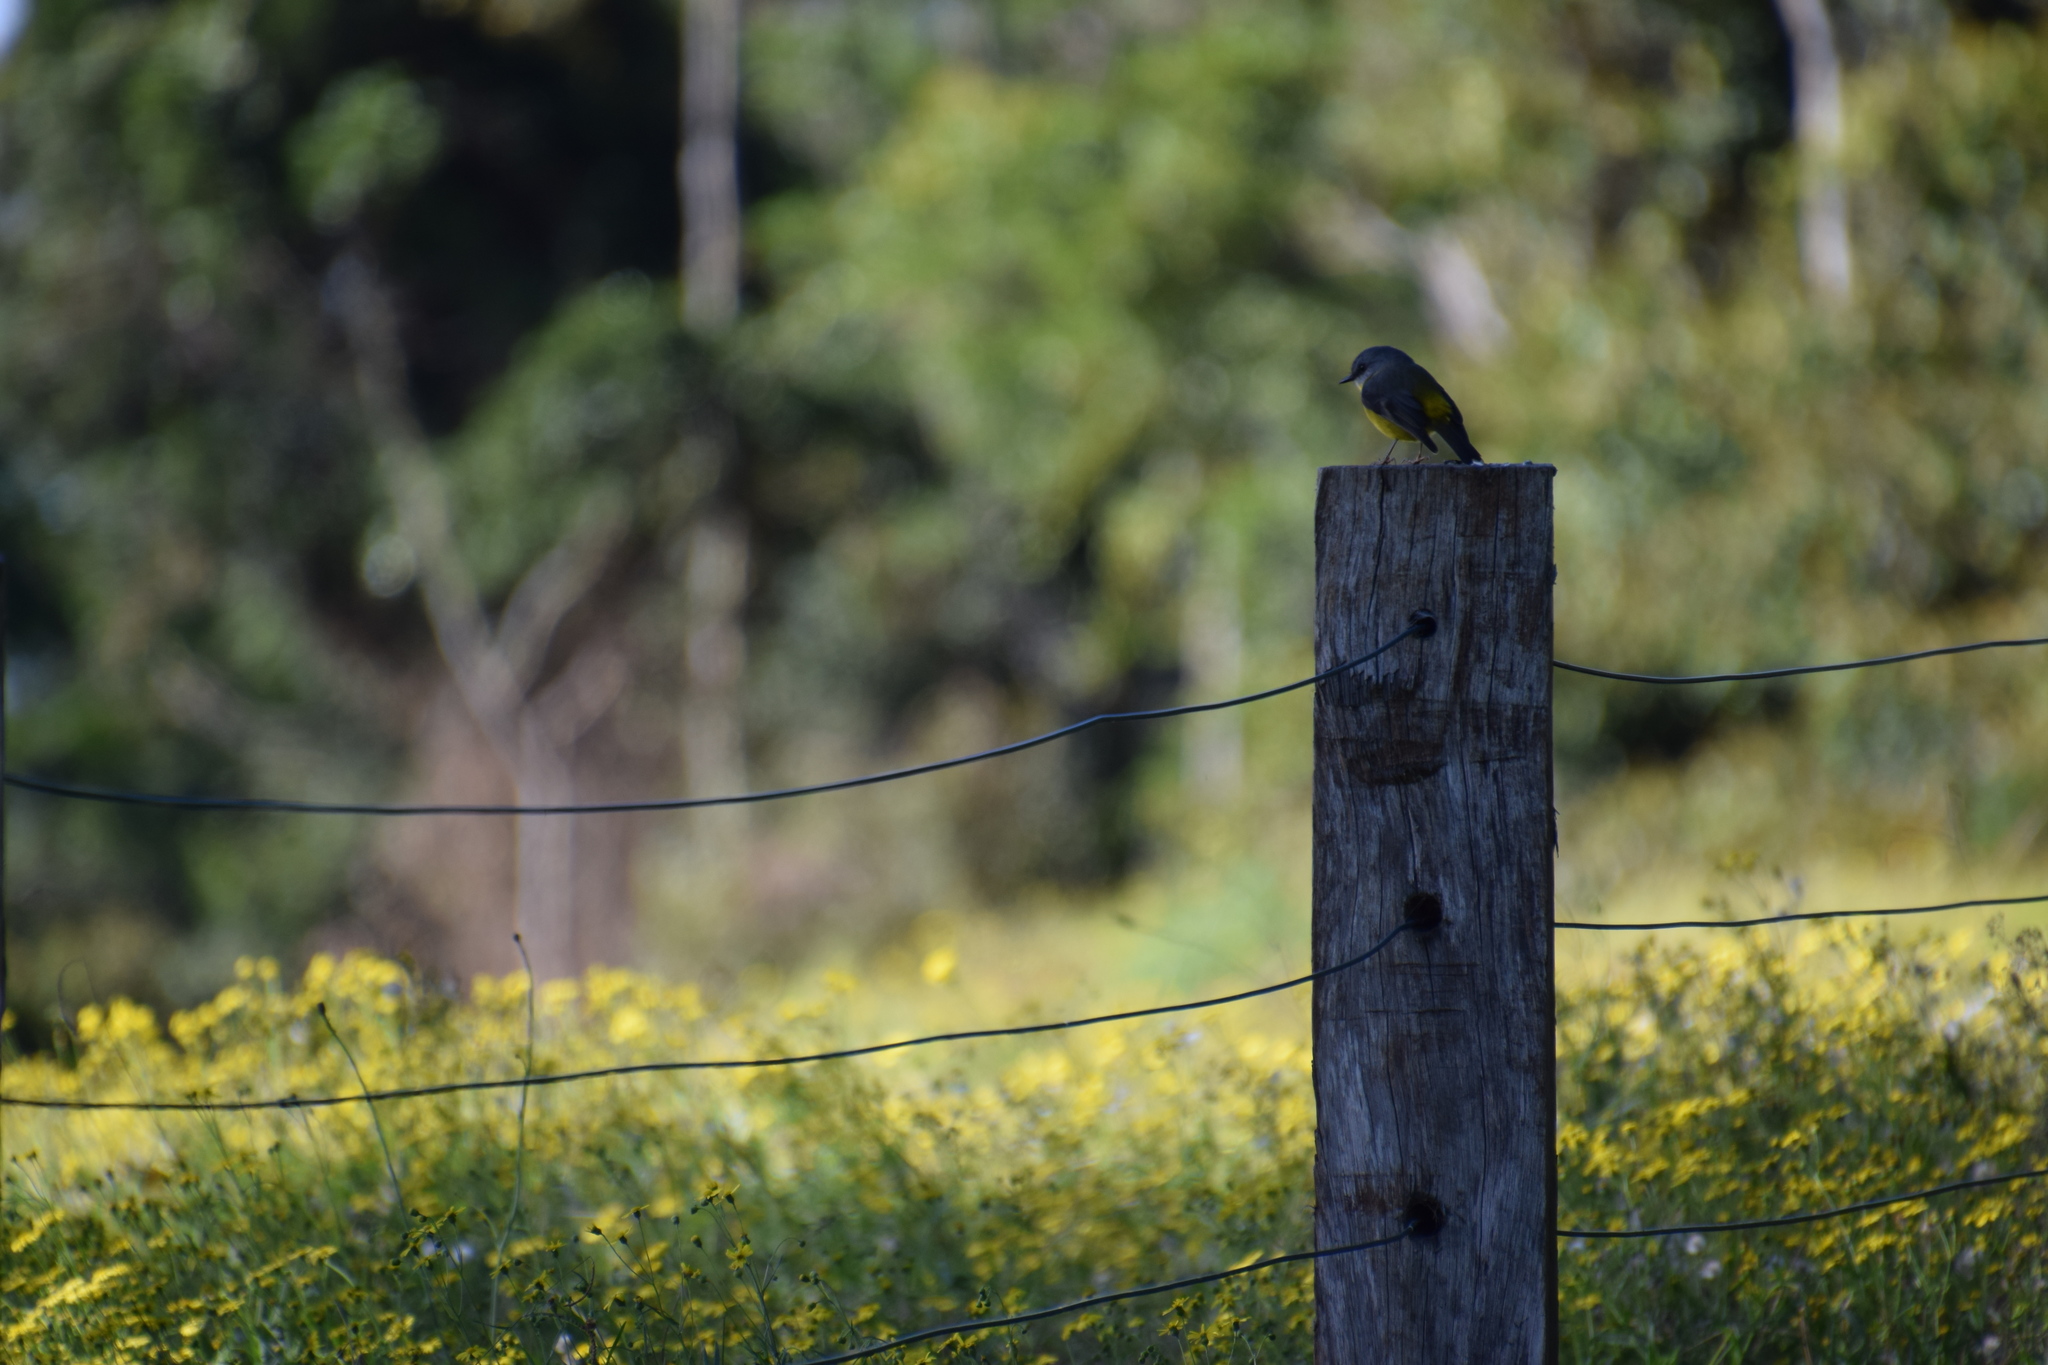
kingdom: Animalia
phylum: Chordata
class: Aves
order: Passeriformes
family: Petroicidae
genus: Eopsaltria
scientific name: Eopsaltria australis
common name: Eastern yellow robin
